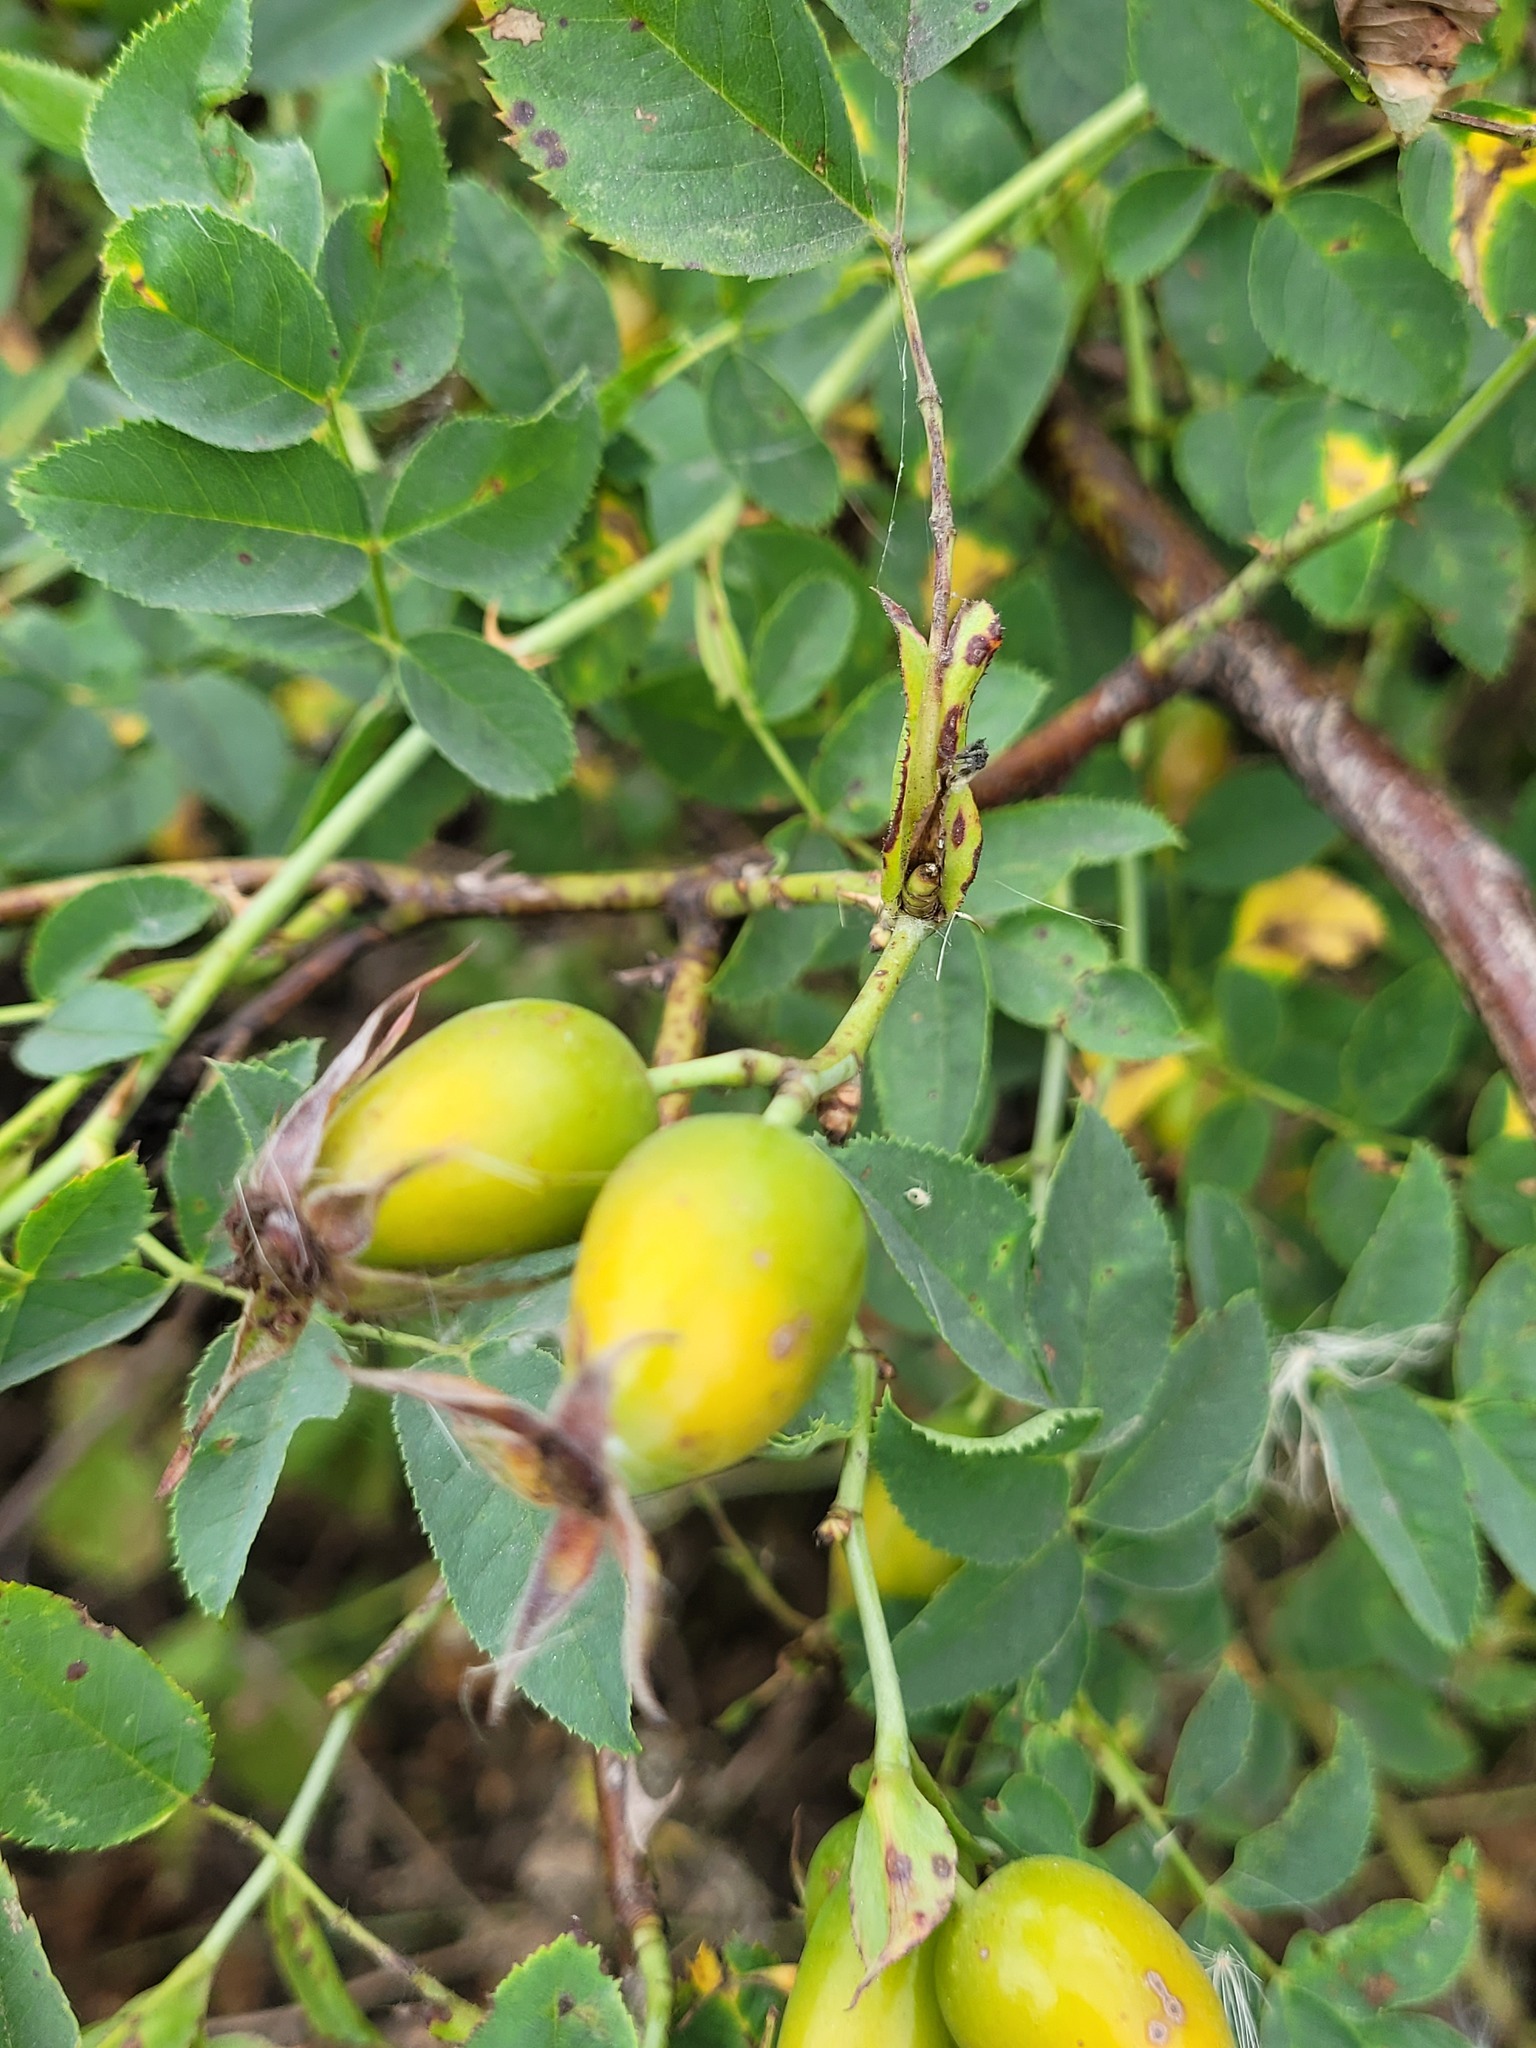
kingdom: Plantae
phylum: Tracheophyta
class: Magnoliopsida
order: Rosales
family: Rosaceae
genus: Rosa
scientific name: Rosa dumalis
